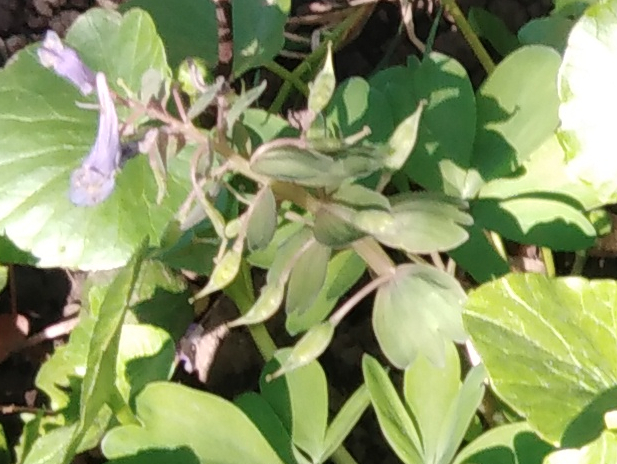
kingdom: Plantae
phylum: Tracheophyta
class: Magnoliopsida
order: Ranunculales
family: Papaveraceae
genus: Corydalis
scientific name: Corydalis solida
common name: Bird-in-a-bush
